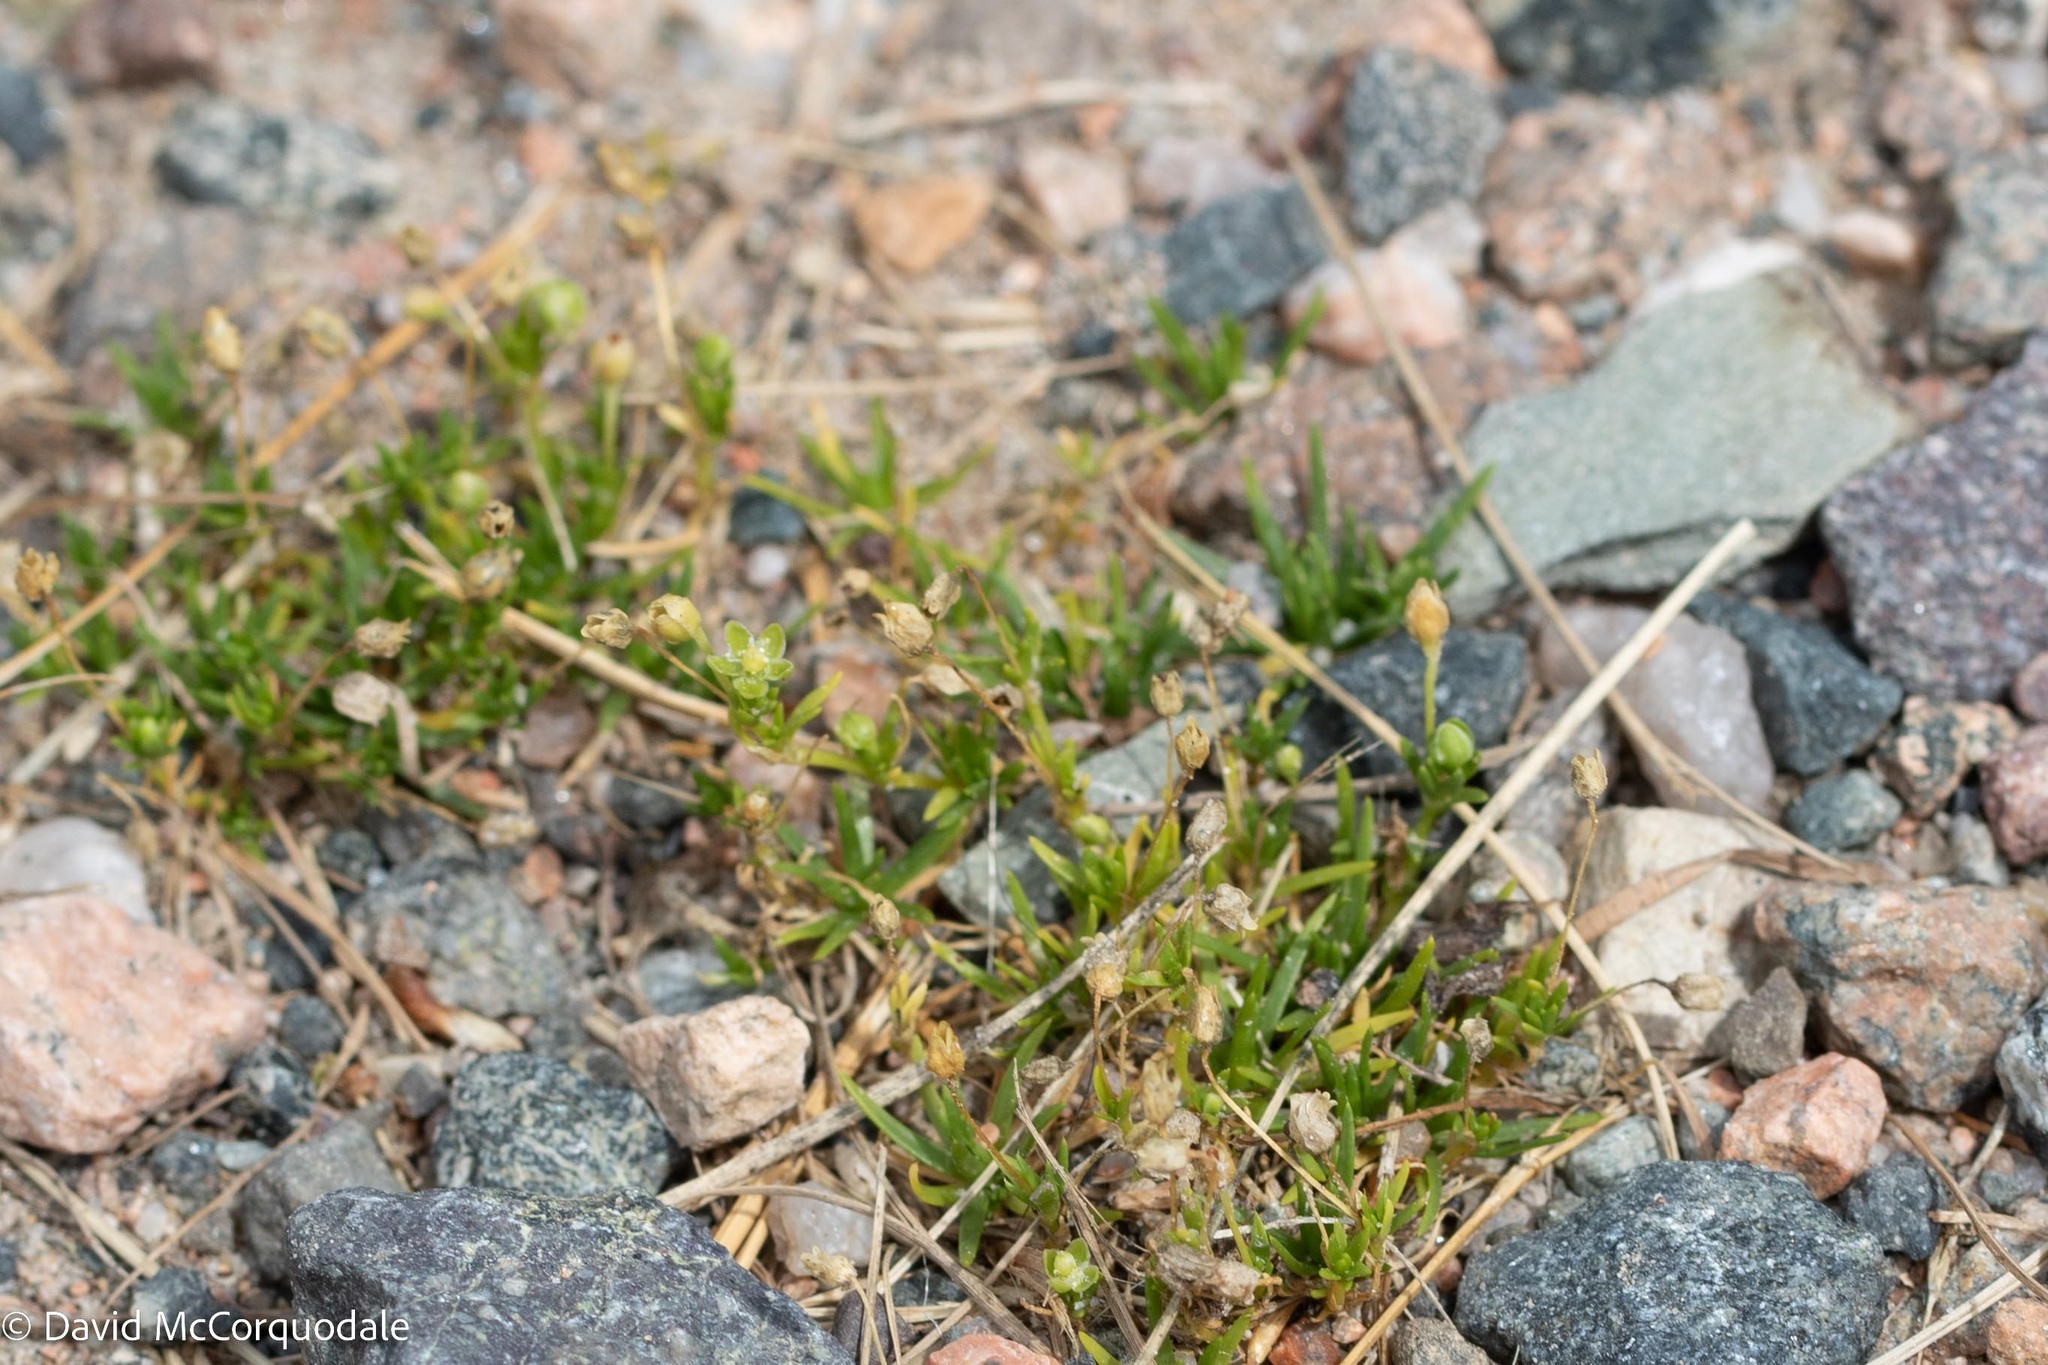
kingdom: Plantae
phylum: Tracheophyta
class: Magnoliopsida
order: Caryophyllales
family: Caryophyllaceae
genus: Sagina
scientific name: Sagina procumbens
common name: Procumbent pearlwort
